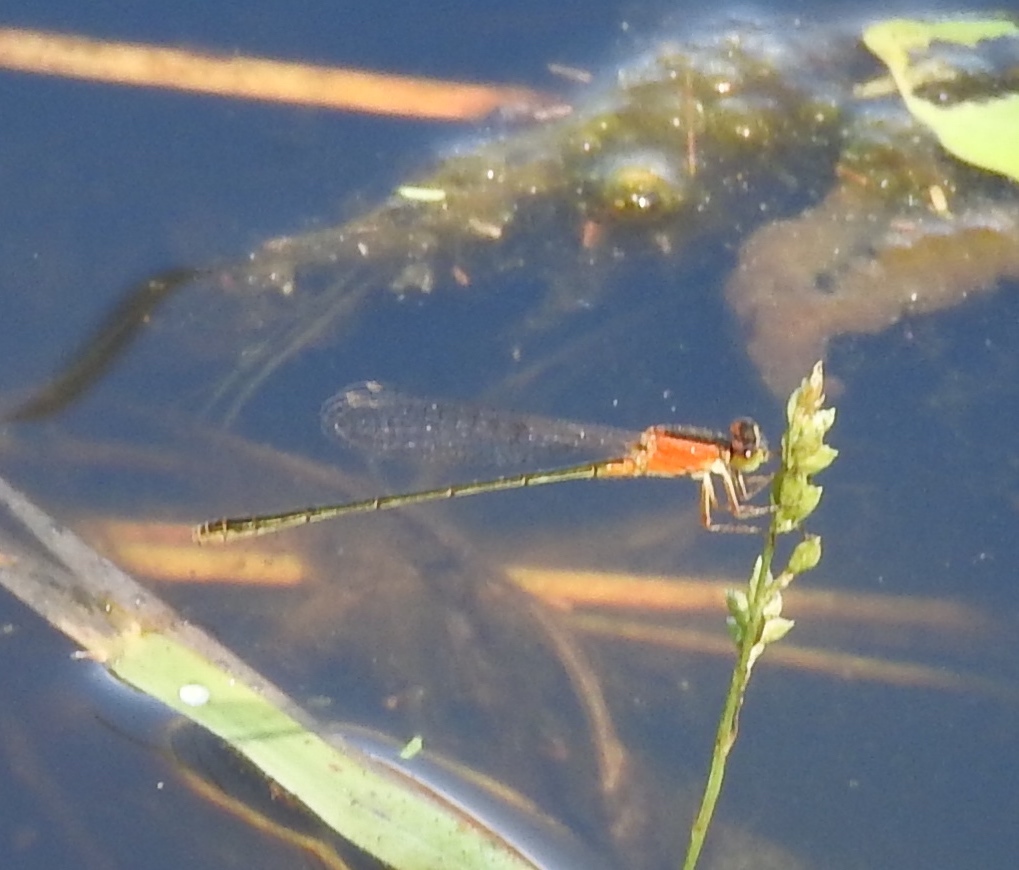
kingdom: Animalia
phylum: Arthropoda
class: Insecta
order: Odonata
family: Coenagrionidae
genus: Ischnura
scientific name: Ischnura ramburii
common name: Rambur's forktail
